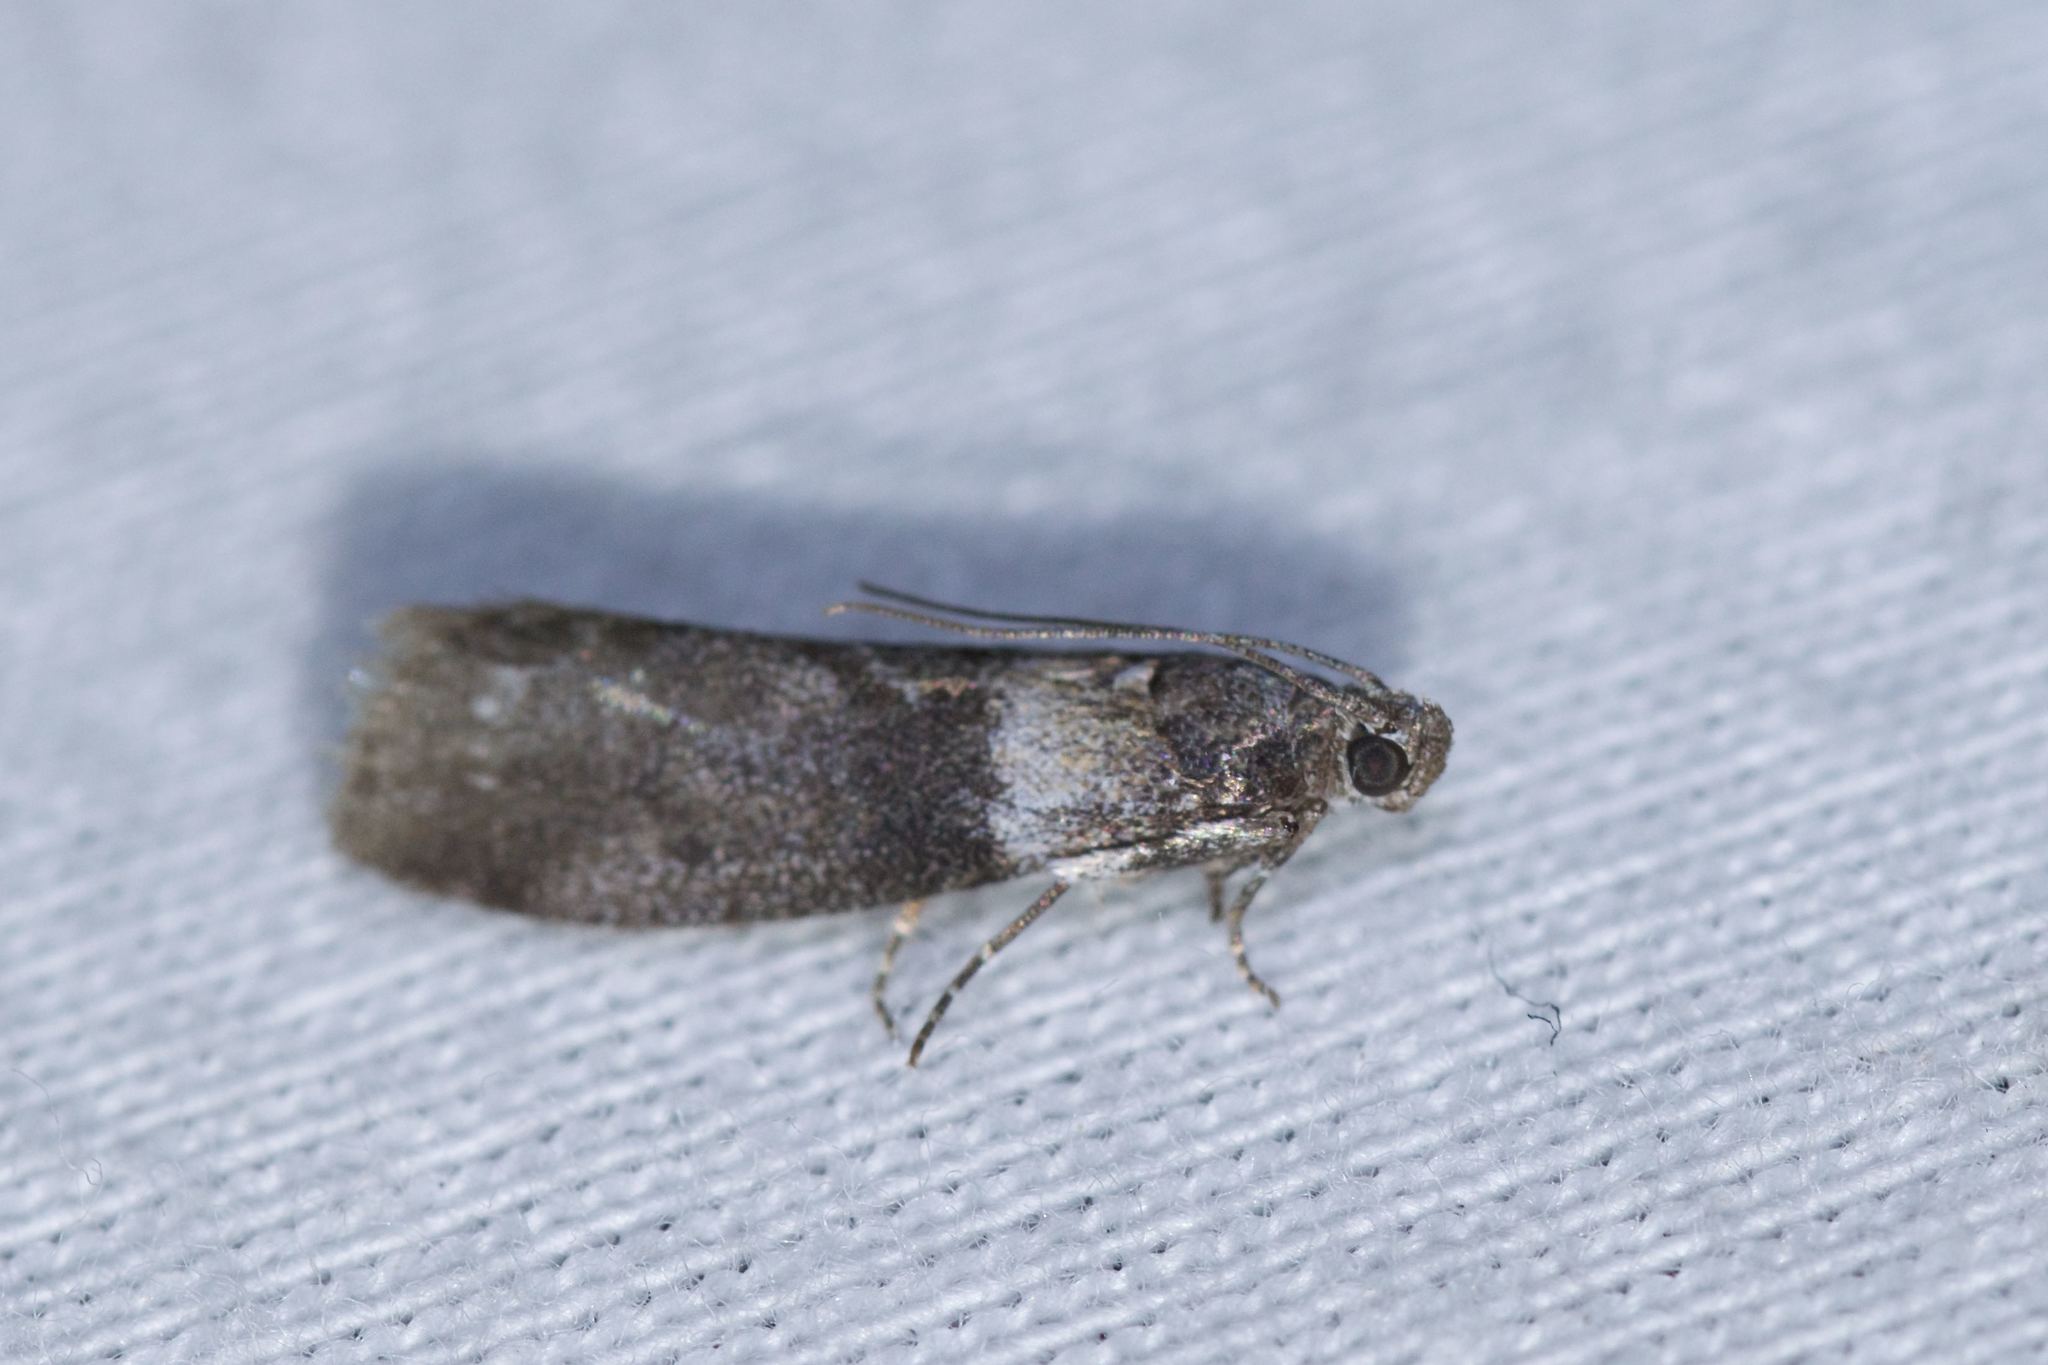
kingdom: Animalia
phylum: Arthropoda
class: Insecta
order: Lepidoptera
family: Pyralidae
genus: Meroptera
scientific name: Meroptera pravella
